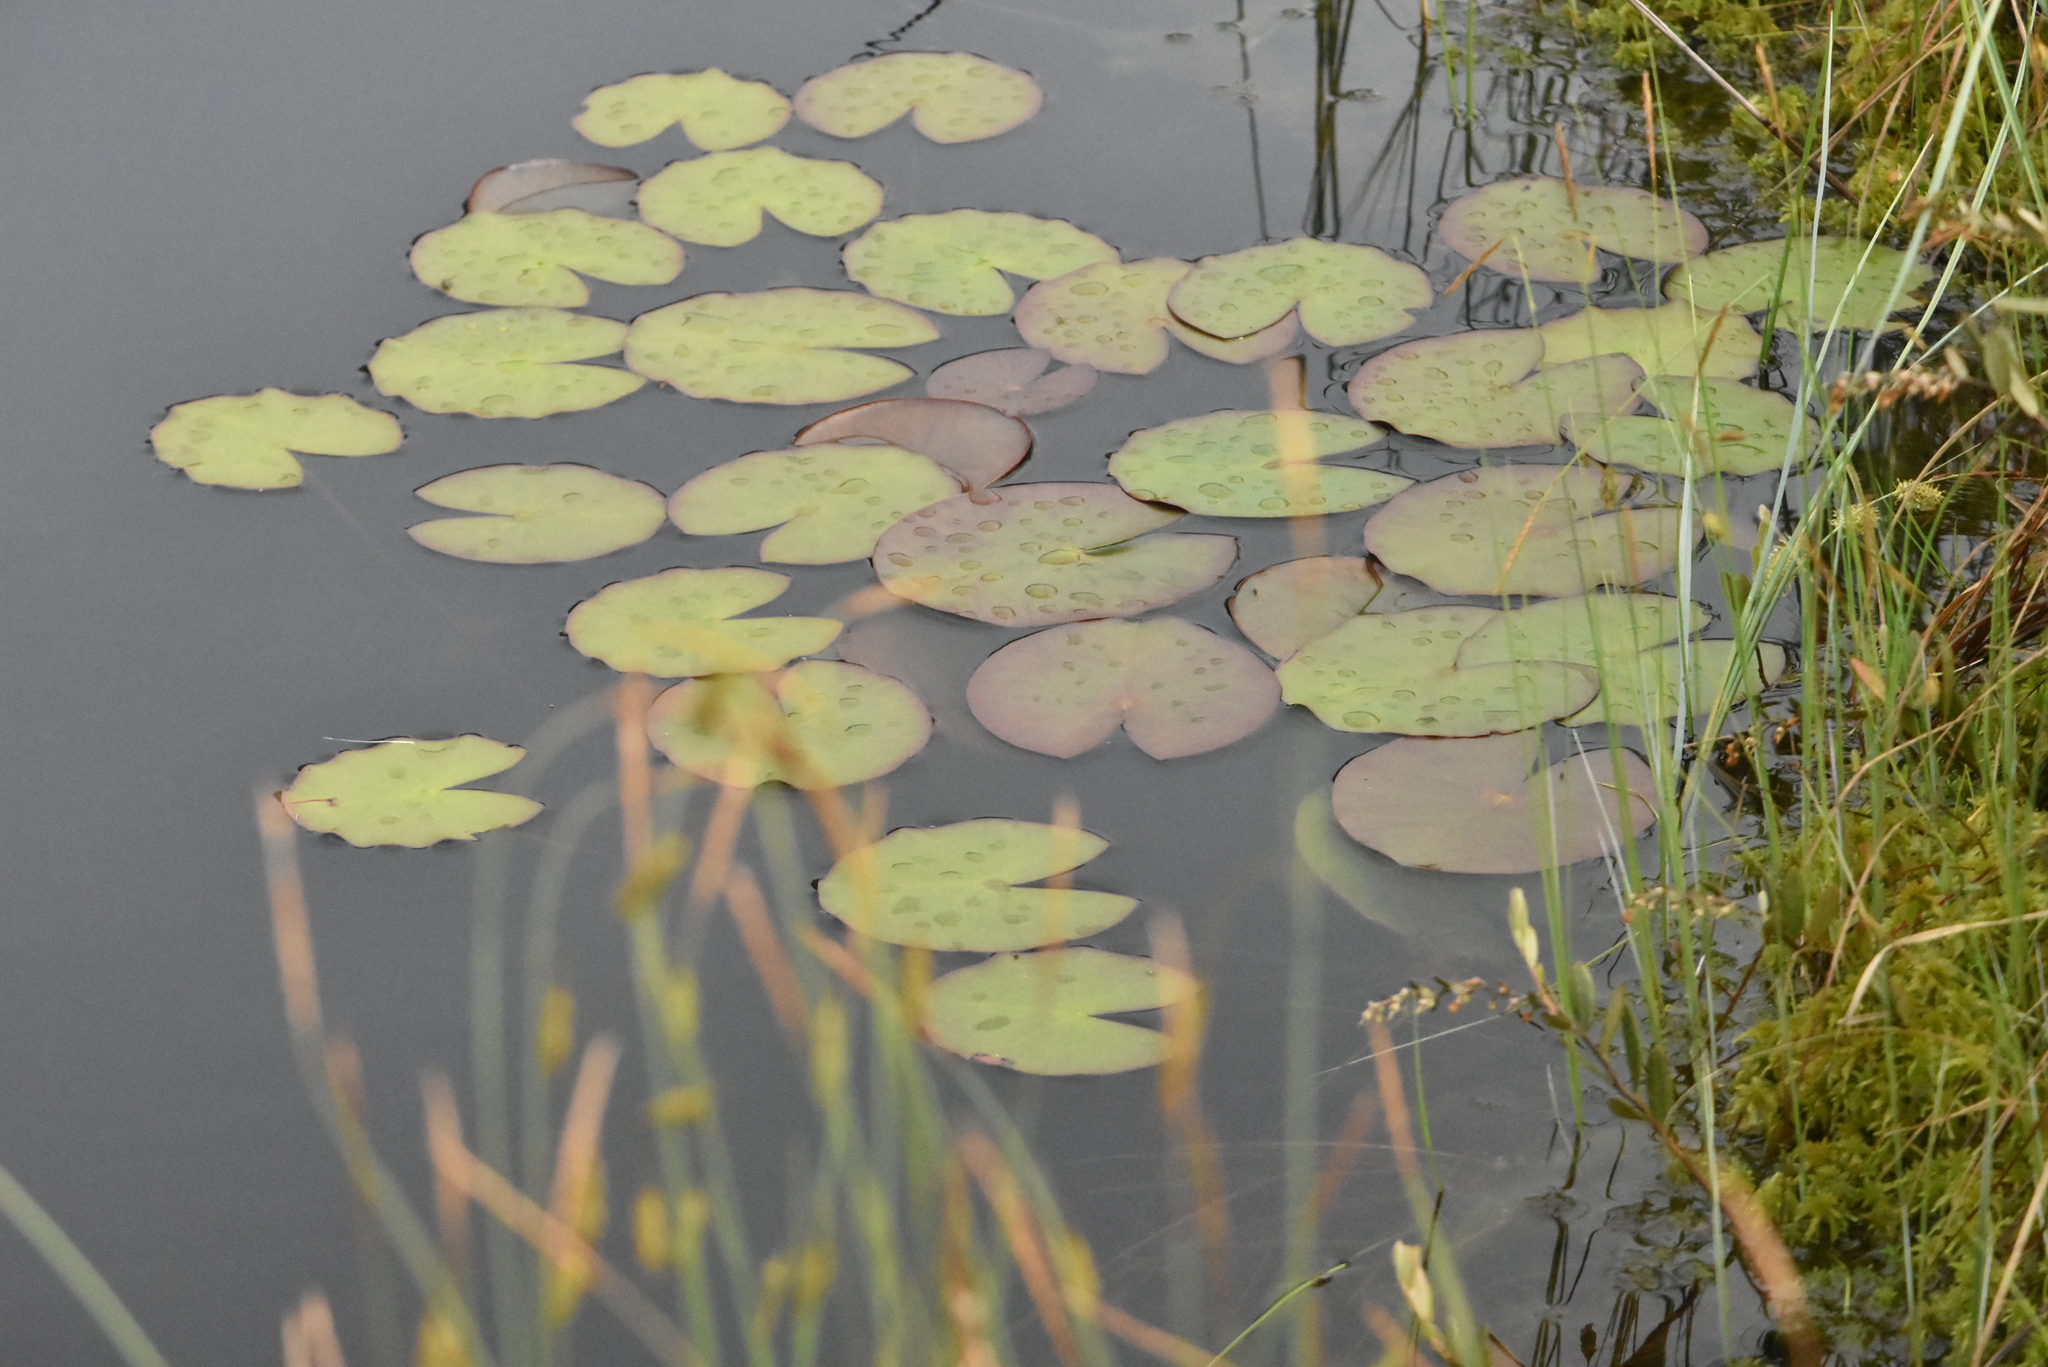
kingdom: Plantae
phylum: Tracheophyta
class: Magnoliopsida
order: Nymphaeales
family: Nymphaeaceae
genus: Nymphaea
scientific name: Nymphaea candida
